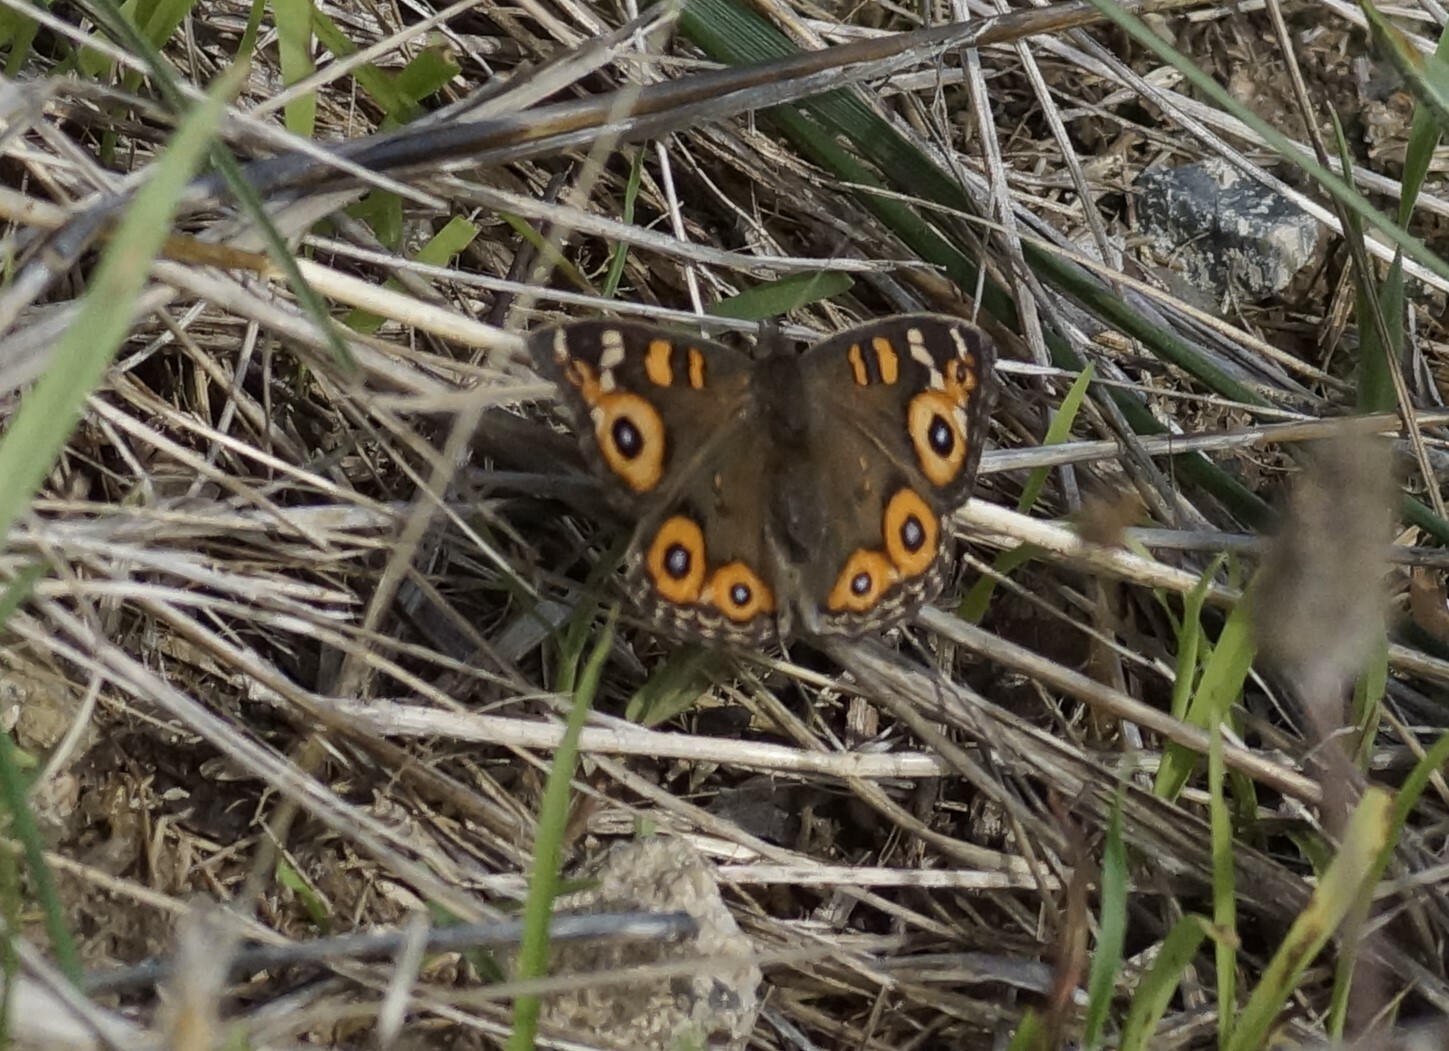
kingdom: Animalia
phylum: Arthropoda
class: Insecta
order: Lepidoptera
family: Nymphalidae
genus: Junonia
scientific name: Junonia villida
